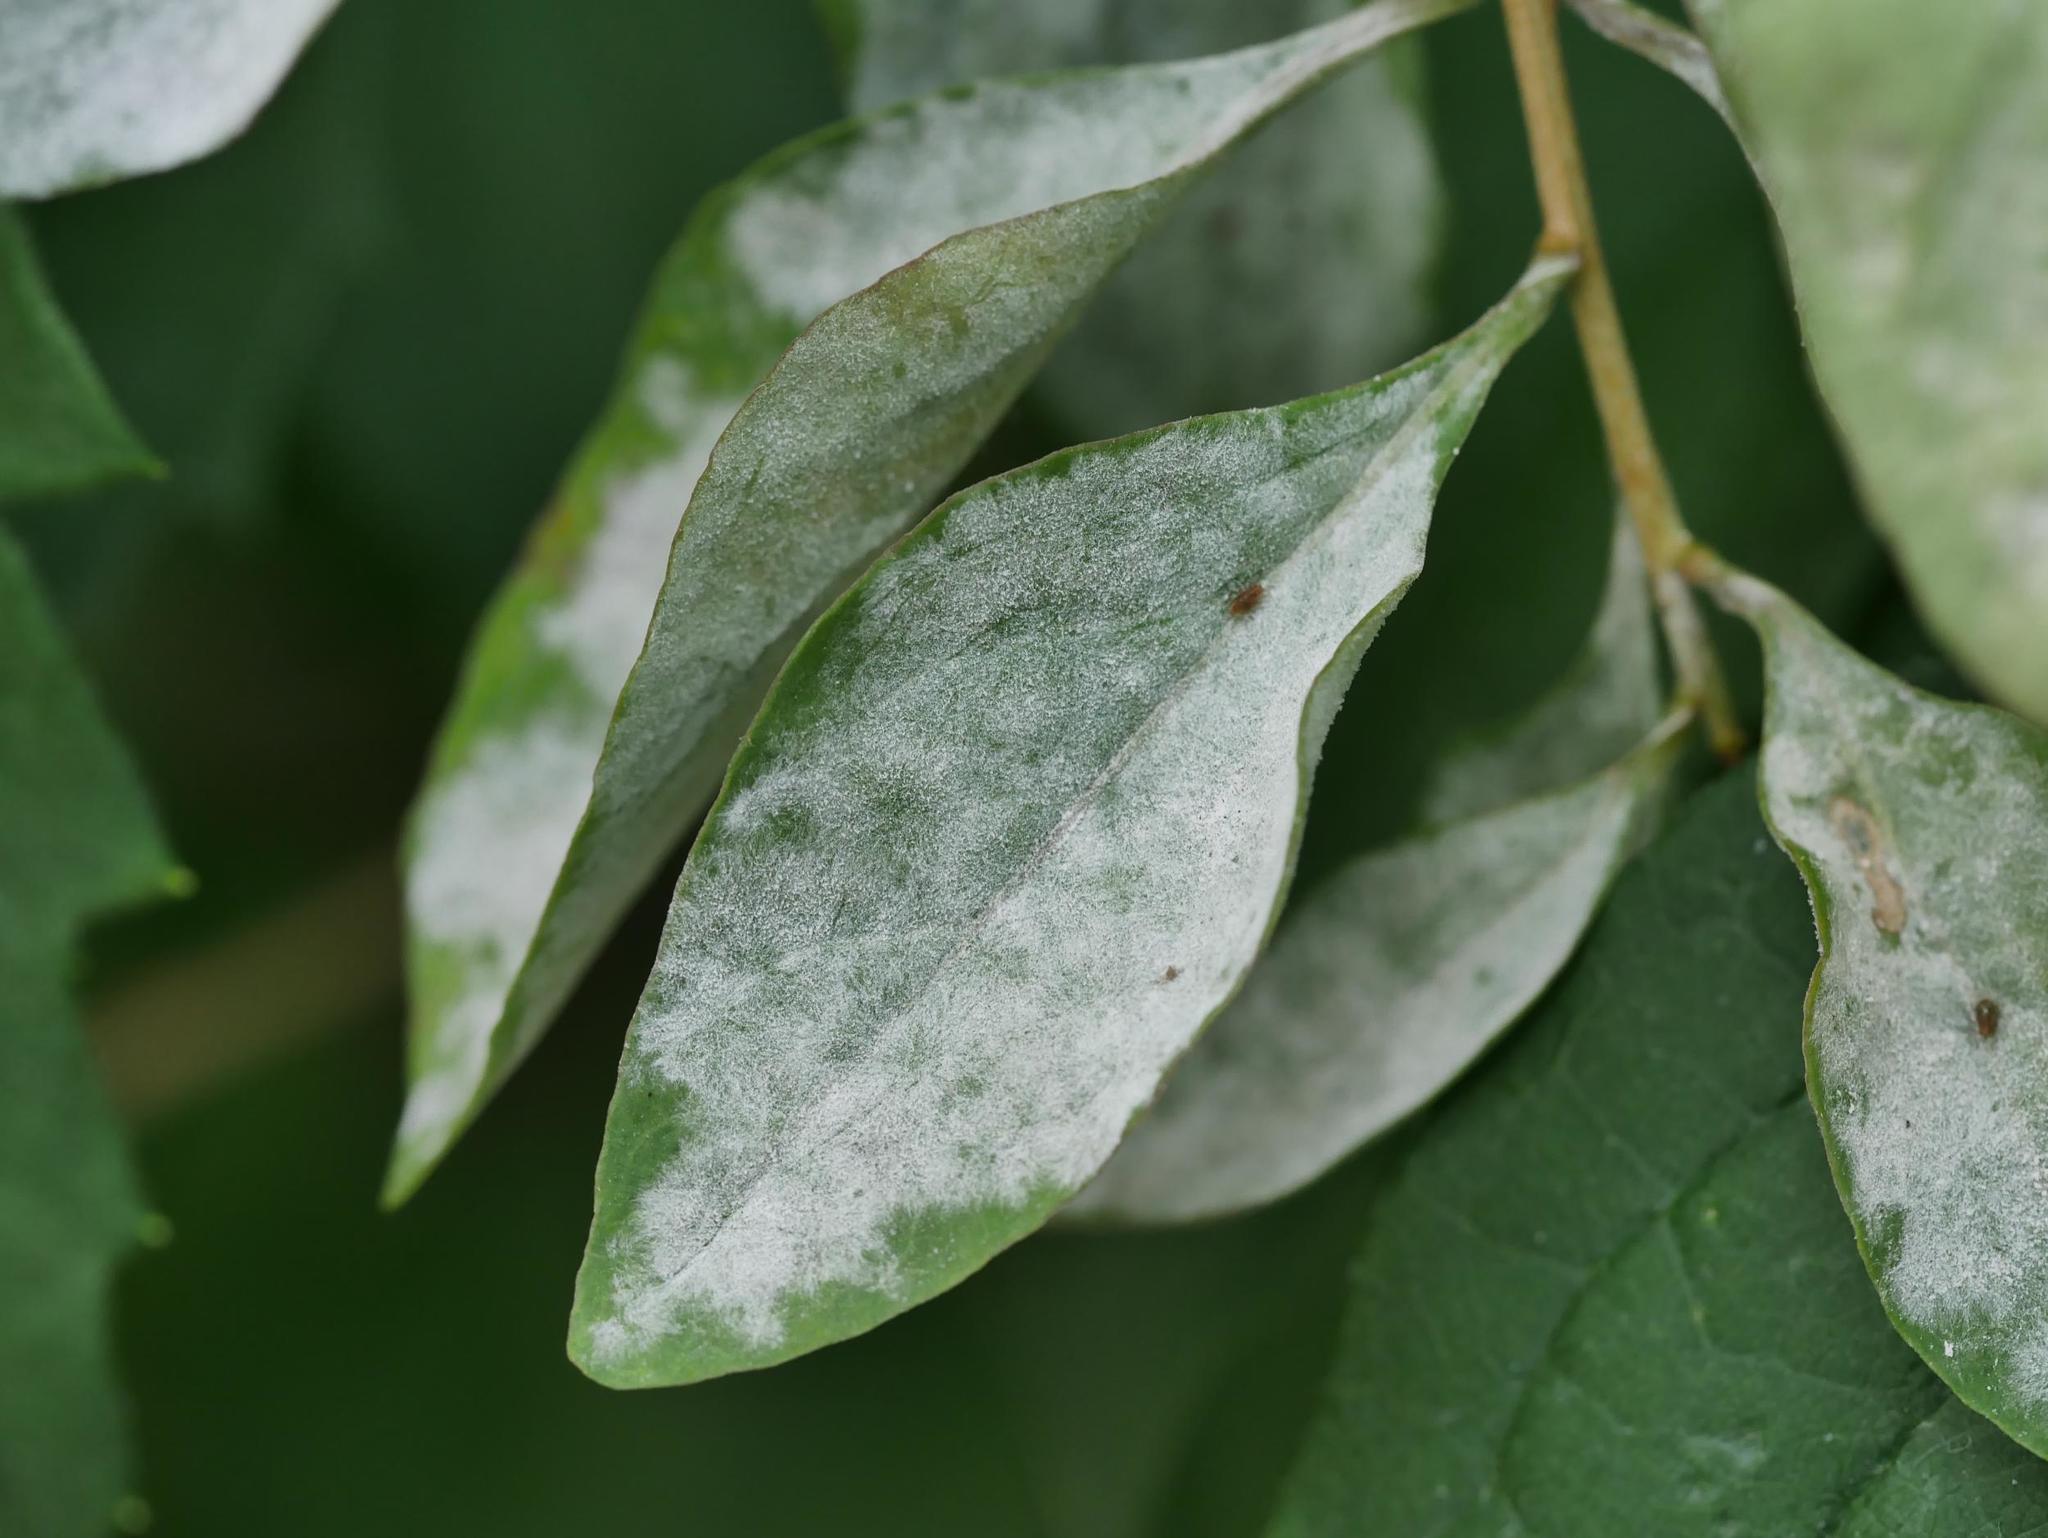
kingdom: Fungi
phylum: Ascomycota
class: Leotiomycetes
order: Helotiales
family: Erysiphaceae
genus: Erysiphe
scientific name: Erysiphe mougeotii
